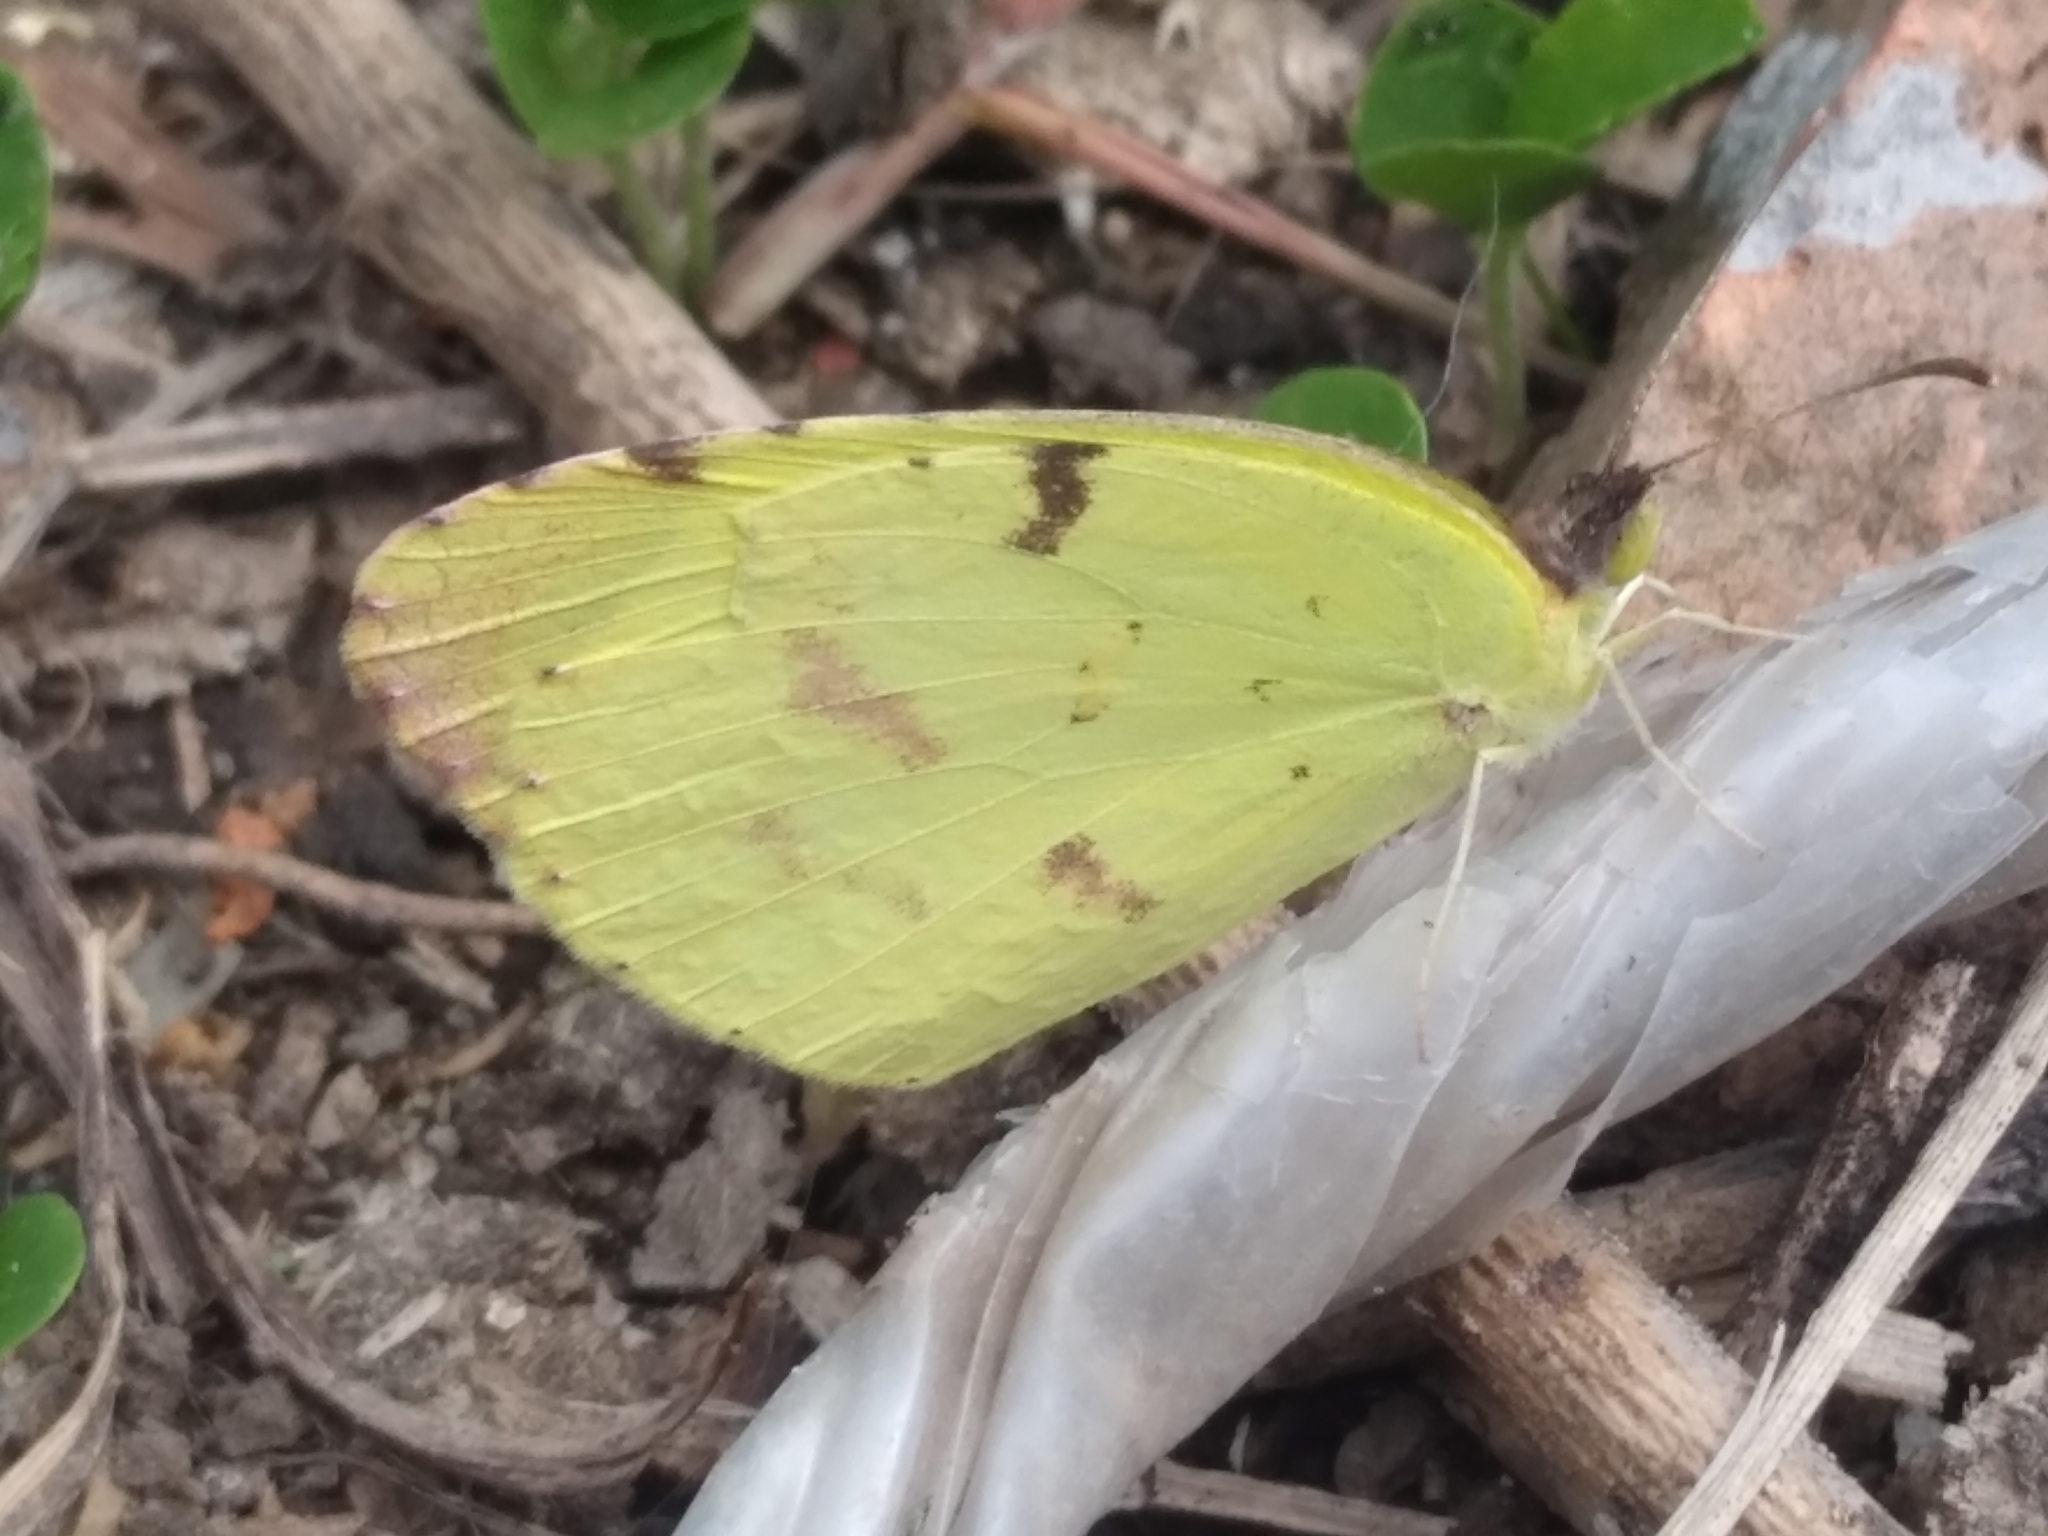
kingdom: Animalia
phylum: Arthropoda
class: Insecta
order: Lepidoptera
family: Pieridae
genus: Teriocolias
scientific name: Teriocolias
